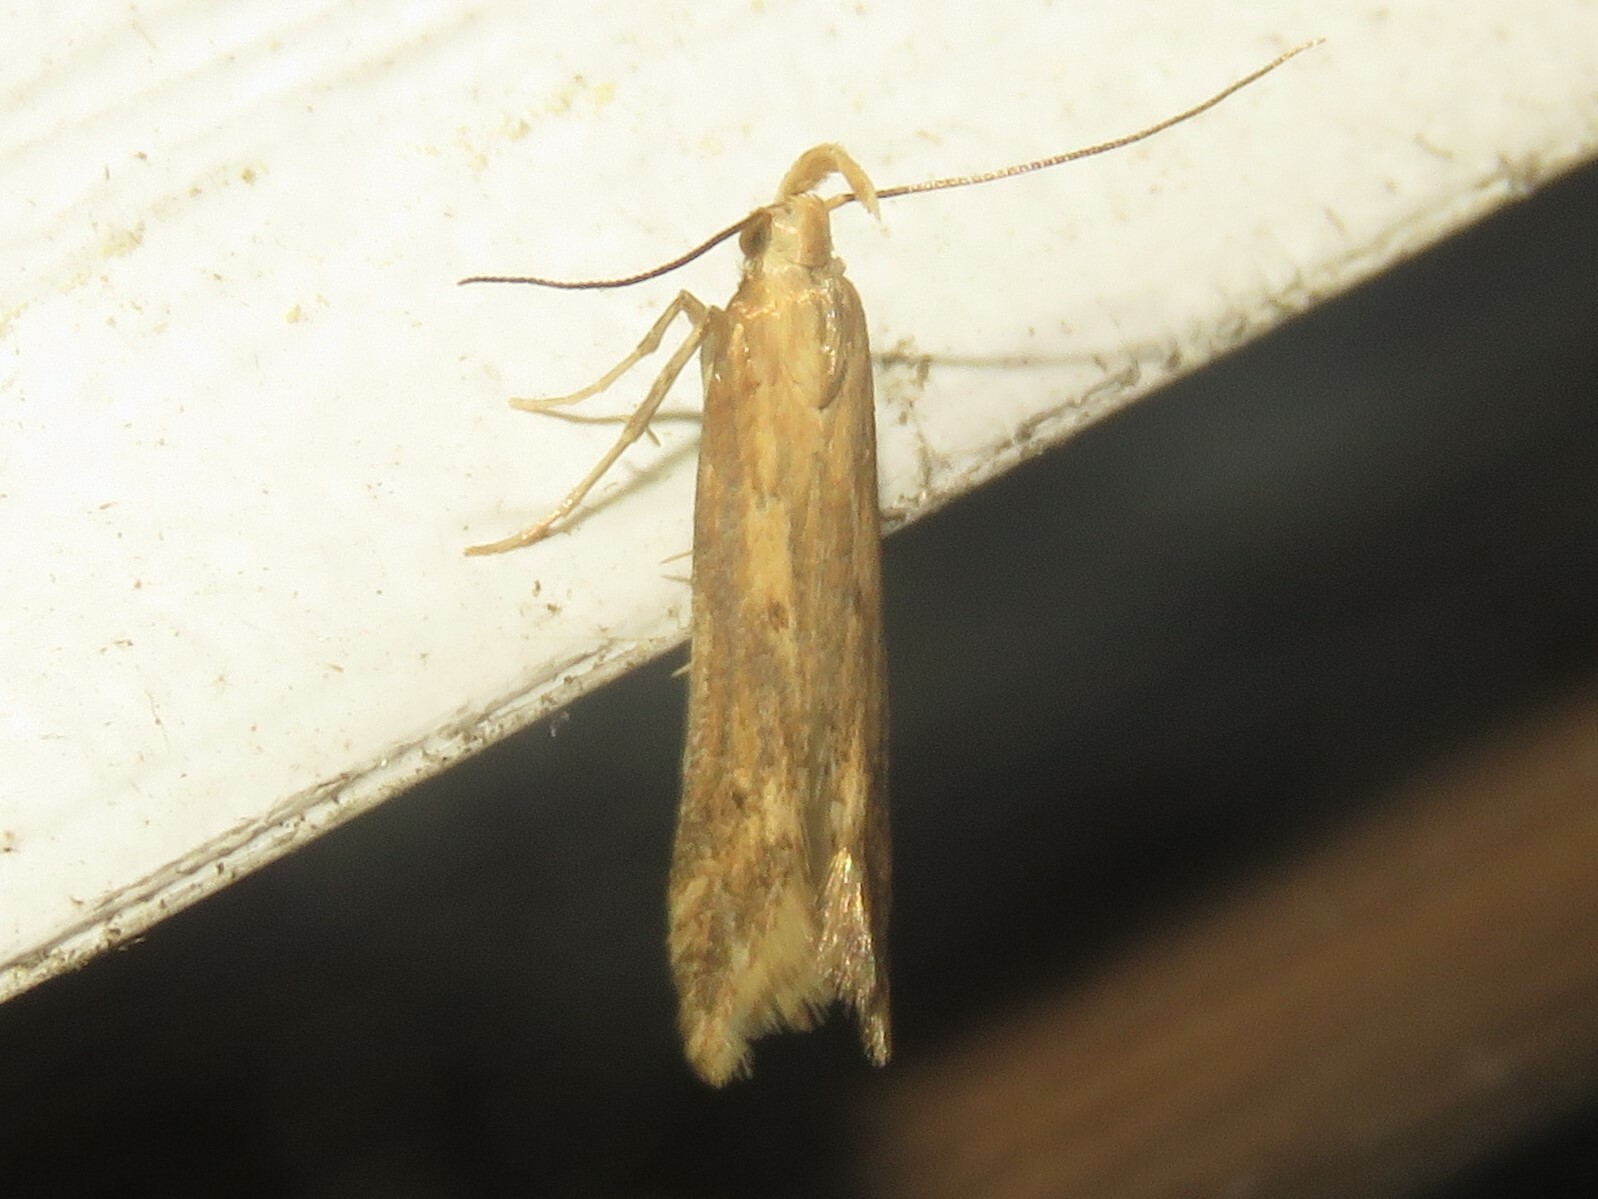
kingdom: Animalia
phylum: Arthropoda
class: Insecta
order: Lepidoptera
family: Gelechiidae
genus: Metzneria
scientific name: Metzneria lappella
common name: Burdock neb
